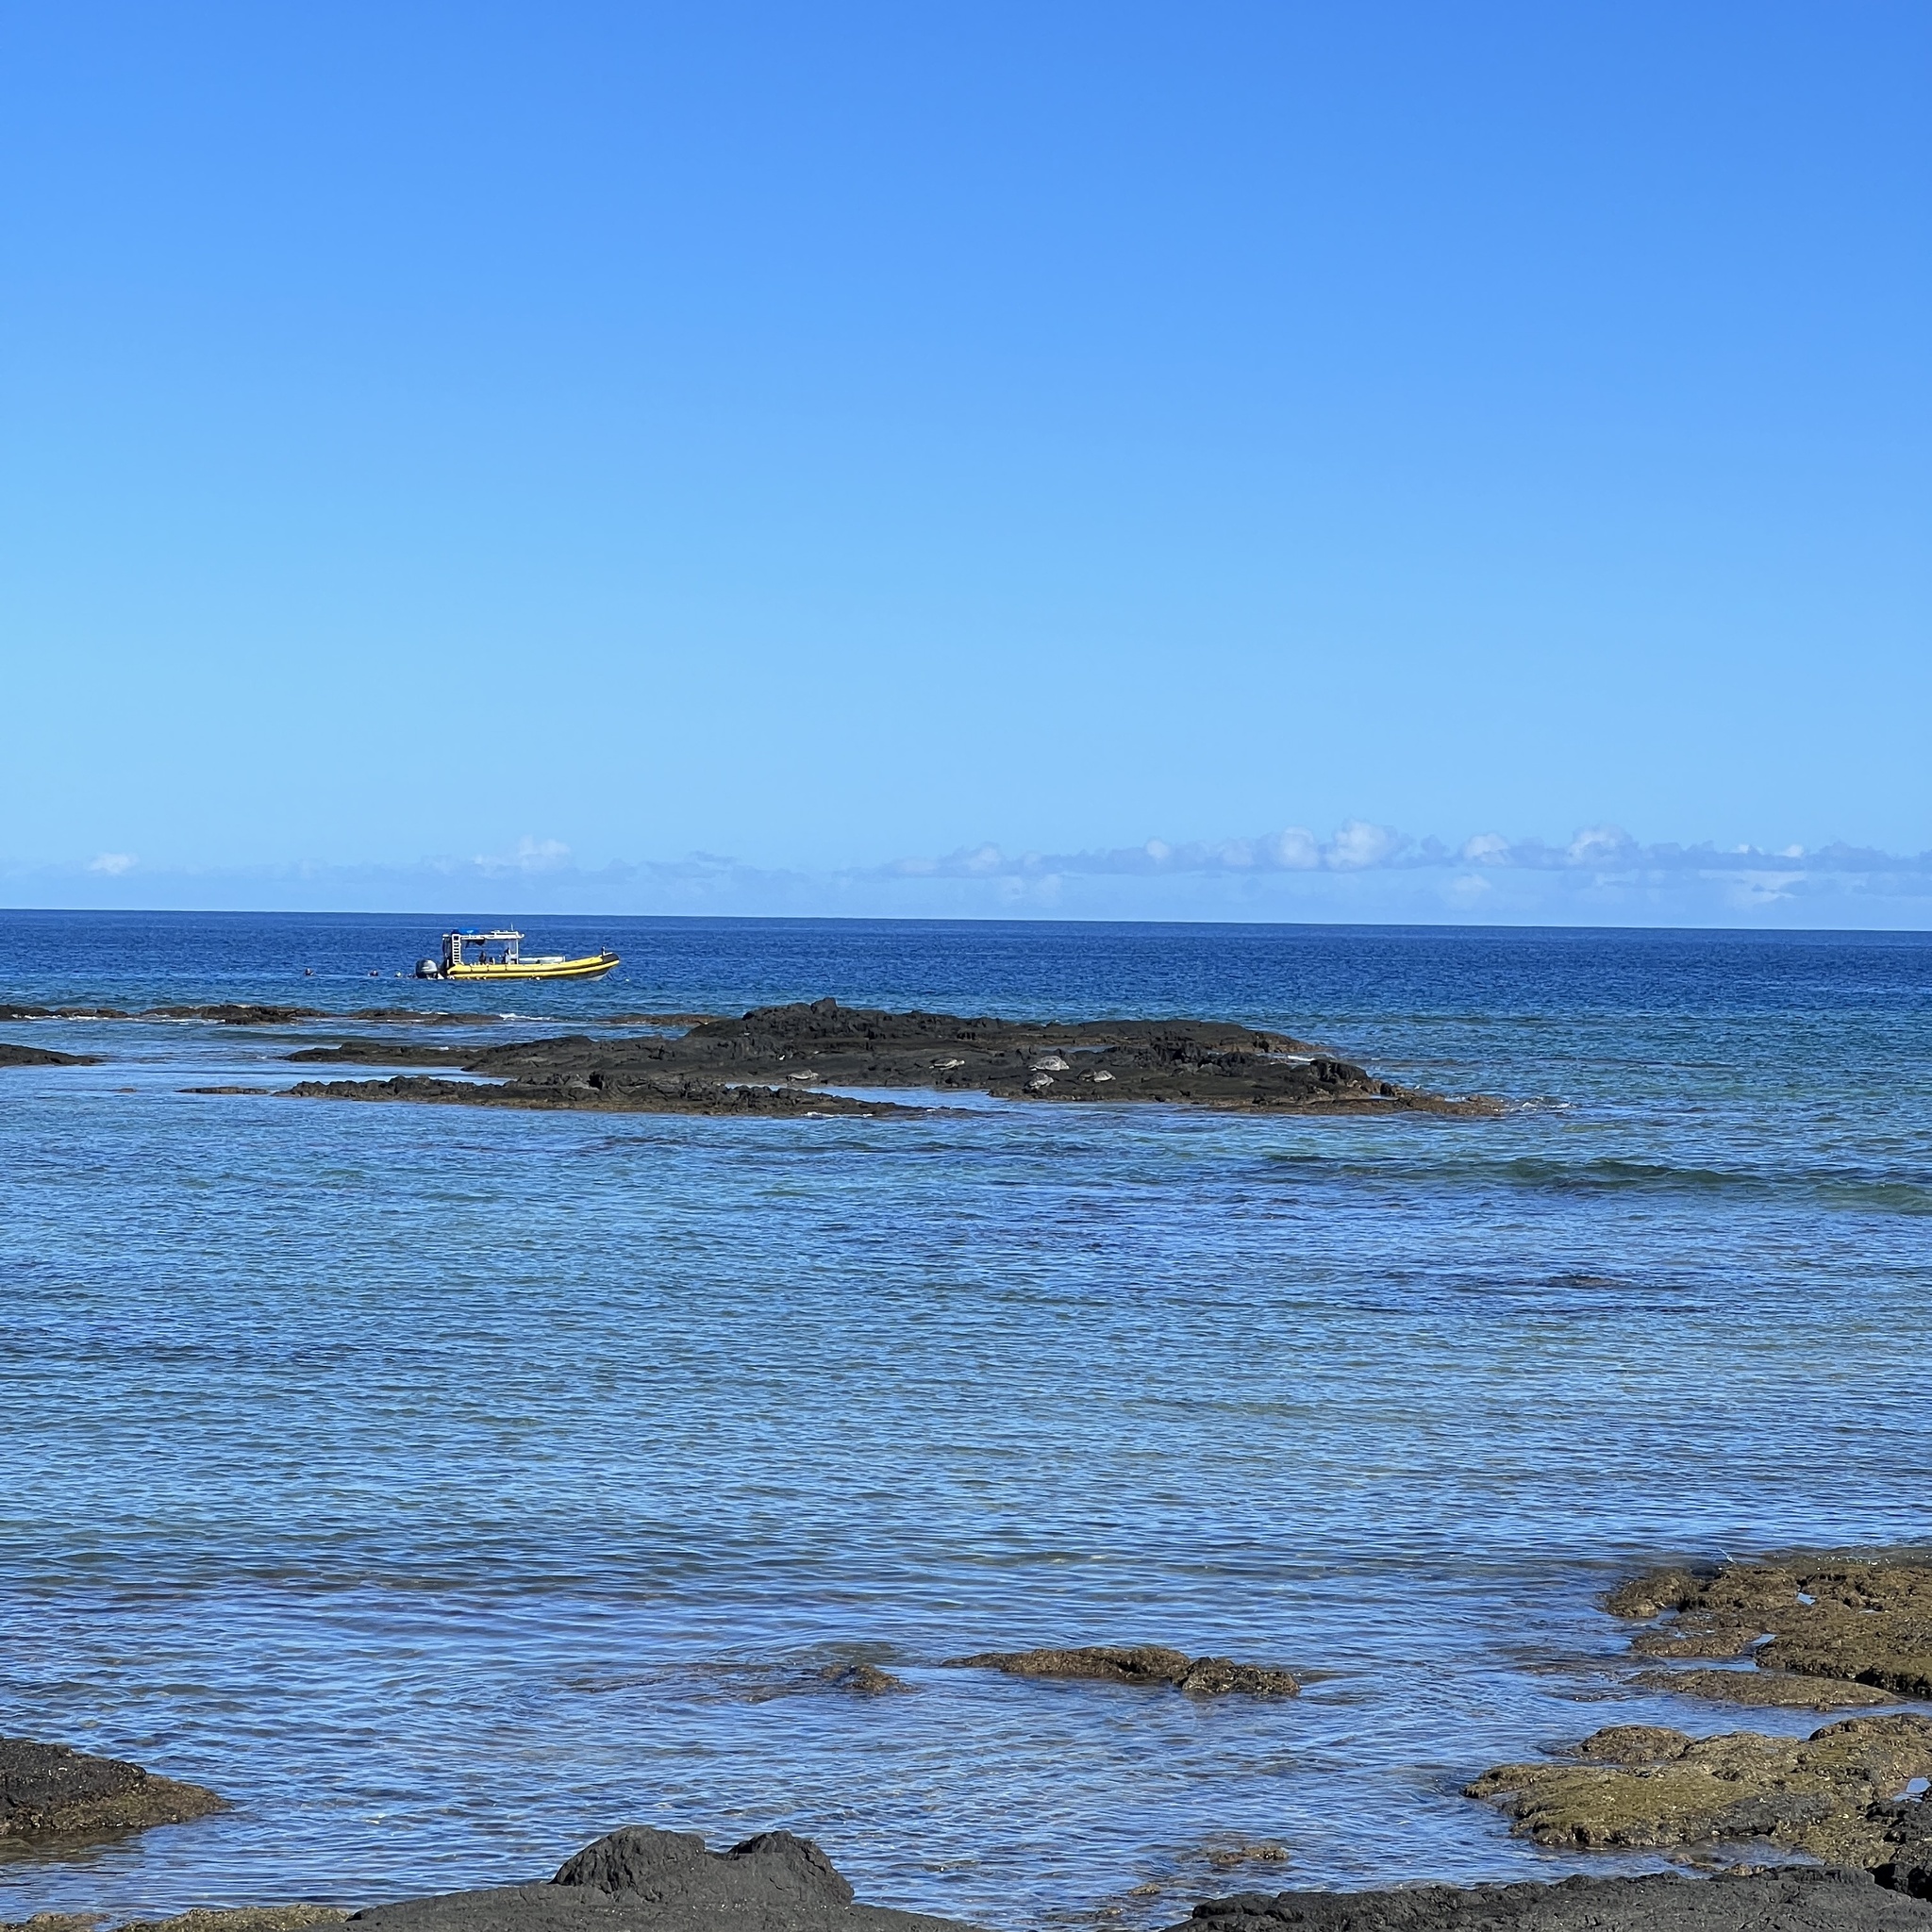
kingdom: Animalia
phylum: Chordata
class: Testudines
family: Cheloniidae
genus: Chelonia
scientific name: Chelonia mydas
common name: Green turtle
